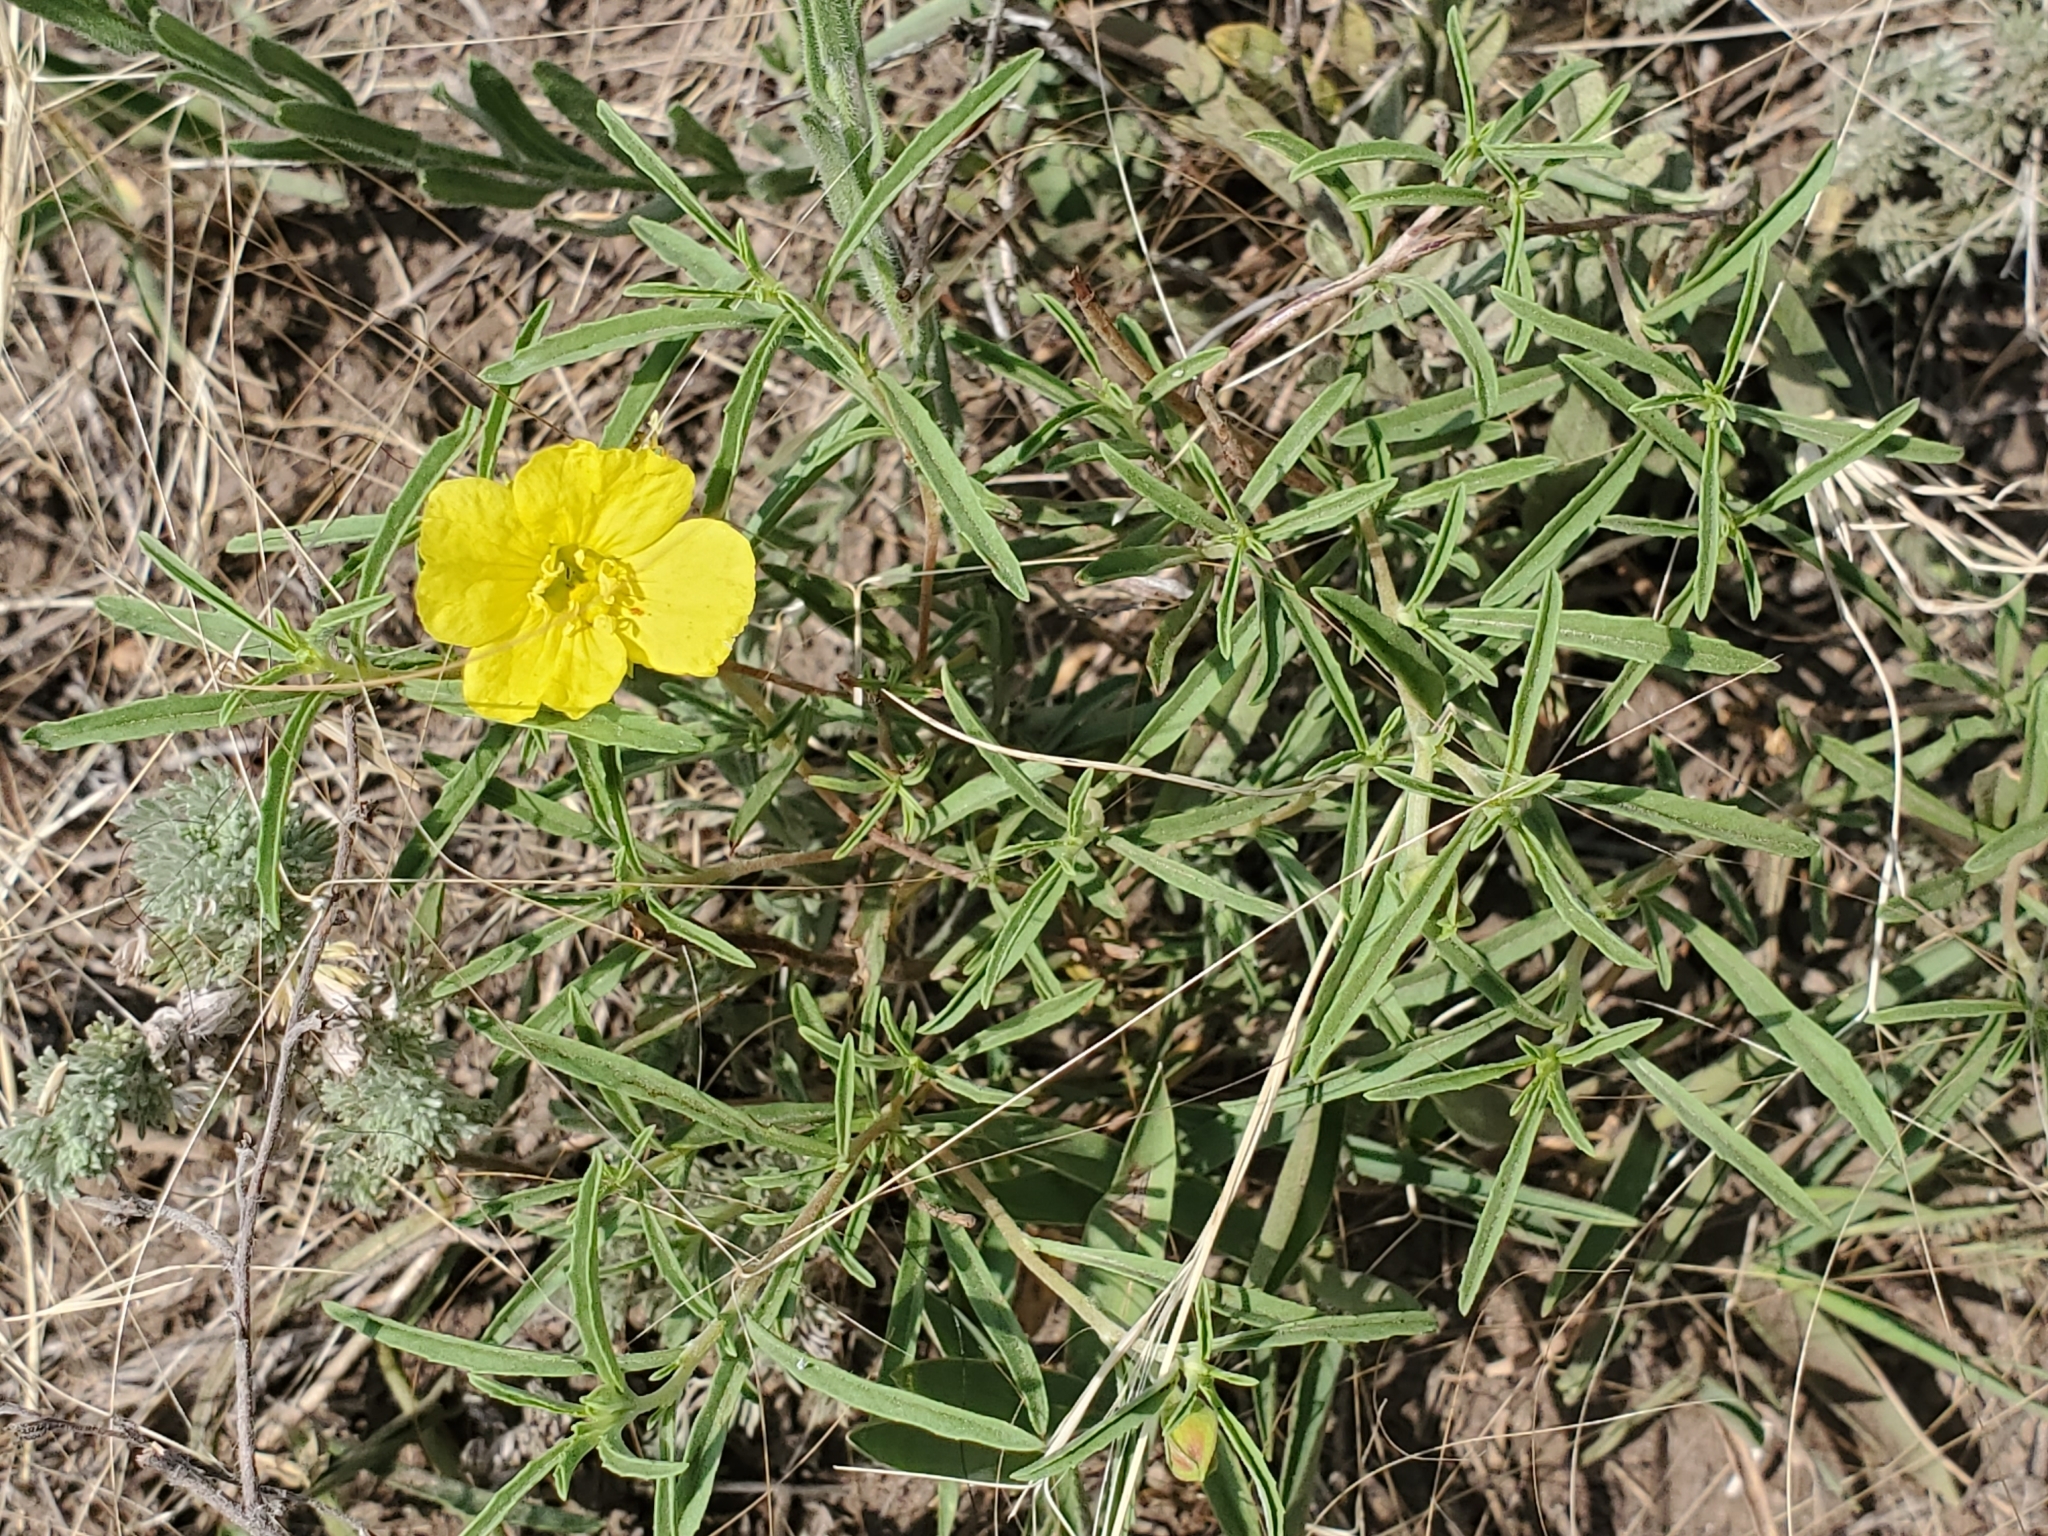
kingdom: Plantae
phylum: Tracheophyta
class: Magnoliopsida
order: Myrtales
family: Onagraceae
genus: Oenothera
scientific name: Oenothera serrulata
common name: Half-shrub calylophus
